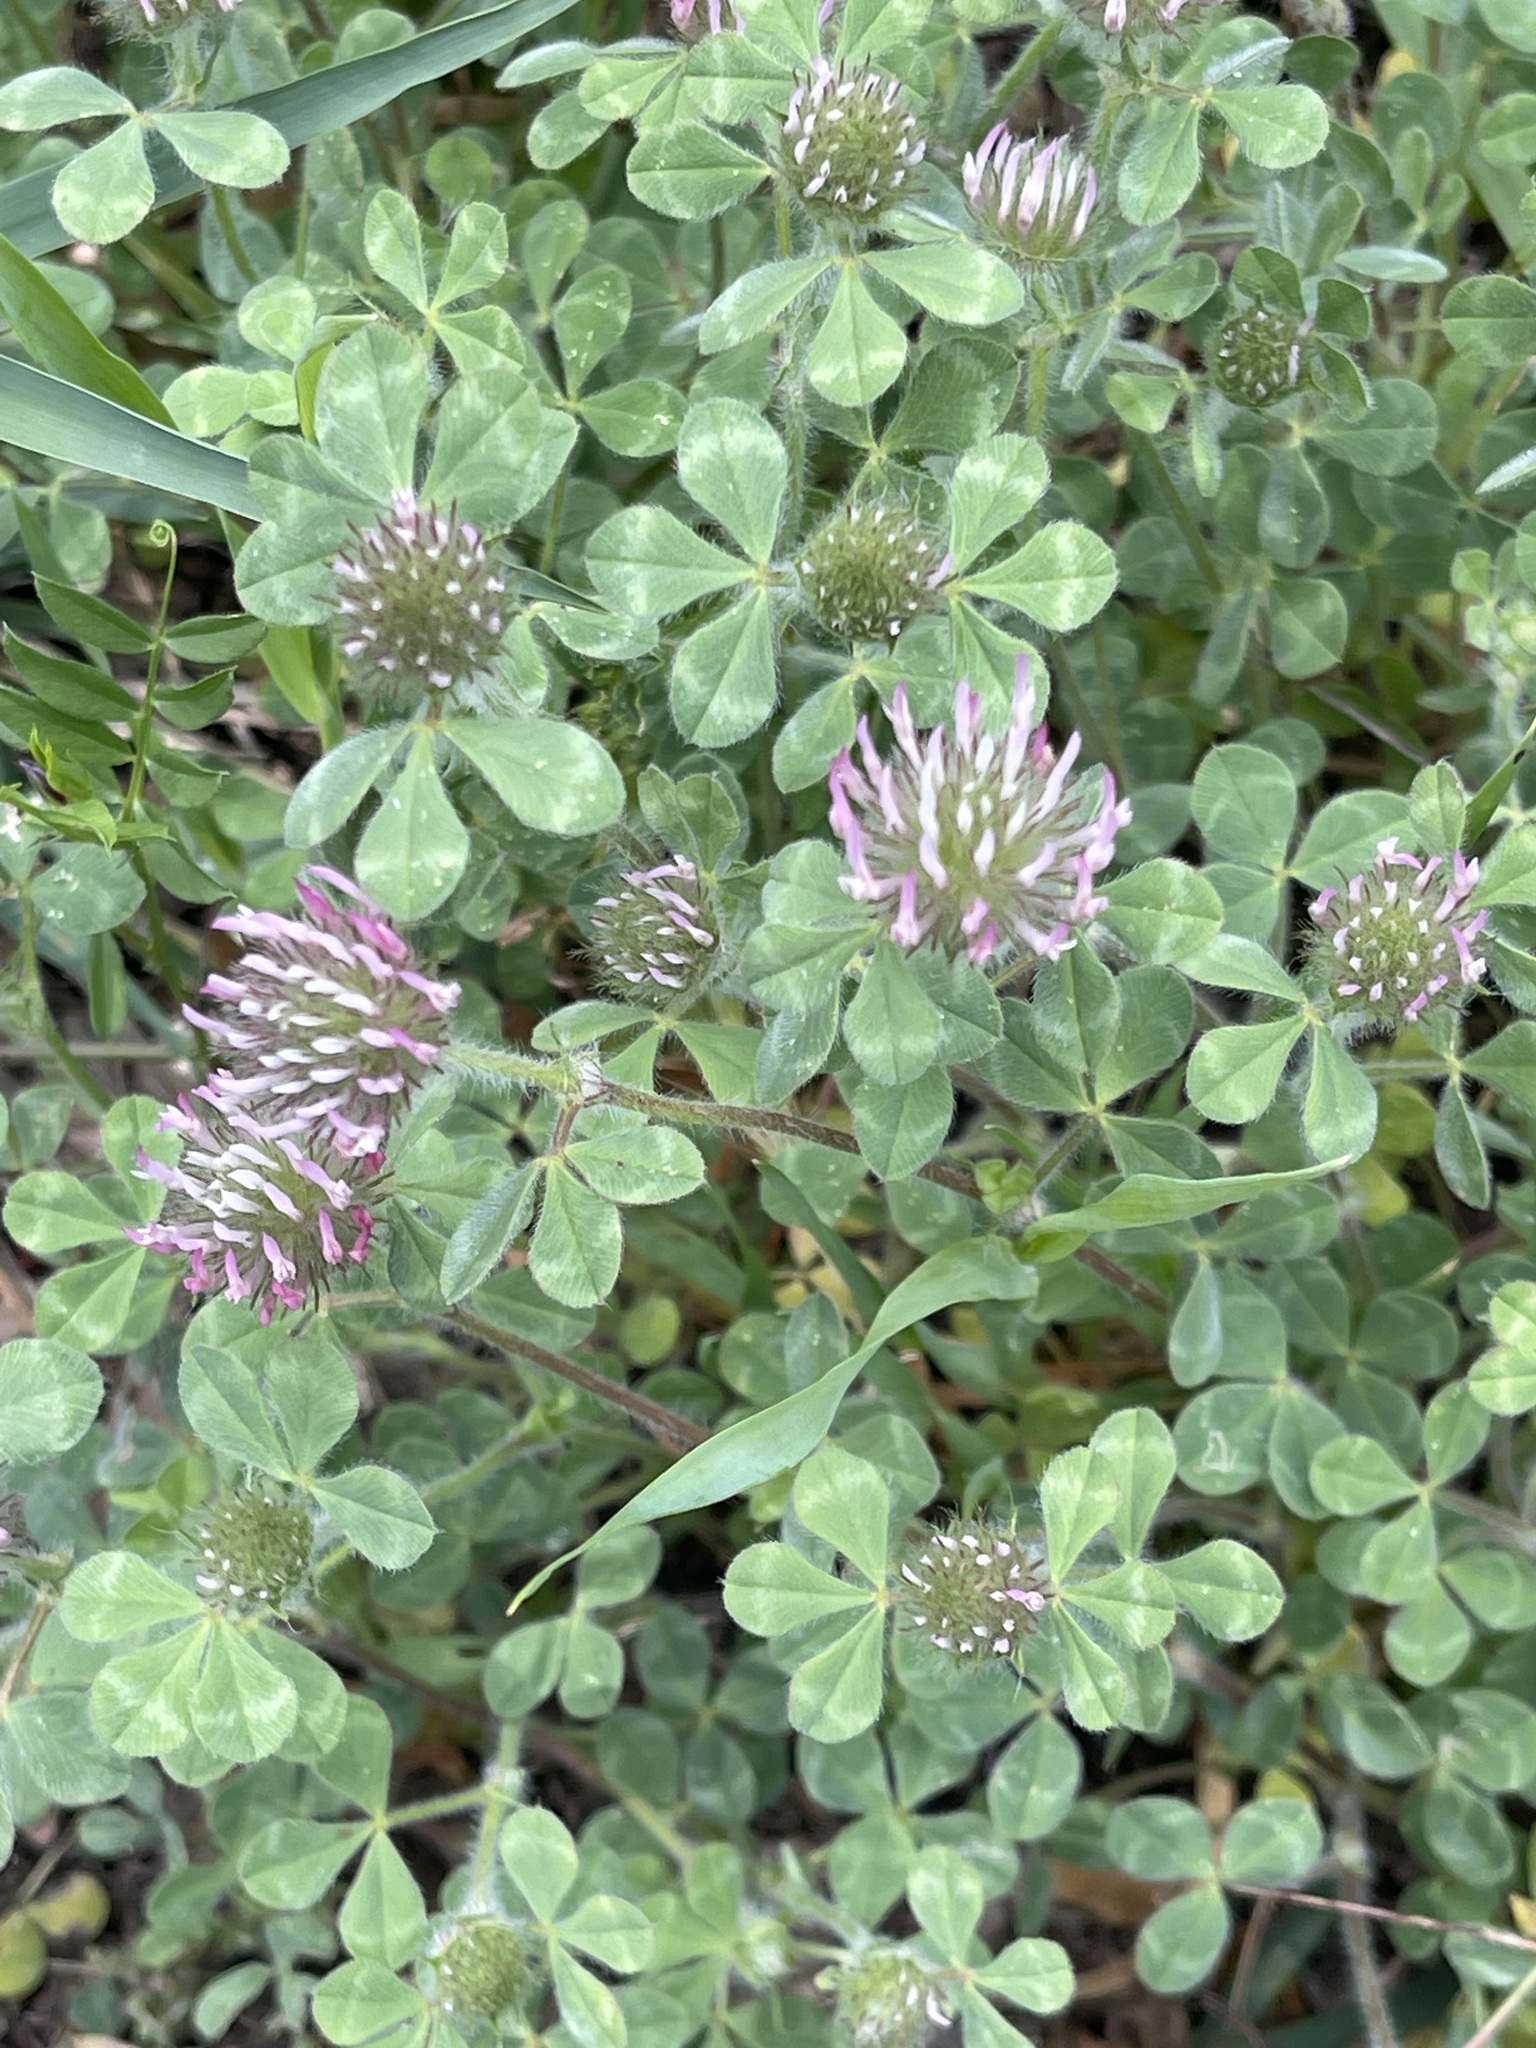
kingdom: Plantae
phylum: Tracheophyta
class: Magnoliopsida
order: Fabales
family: Fabaceae
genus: Trifolium
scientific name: Trifolium hirtum
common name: Rose clover
